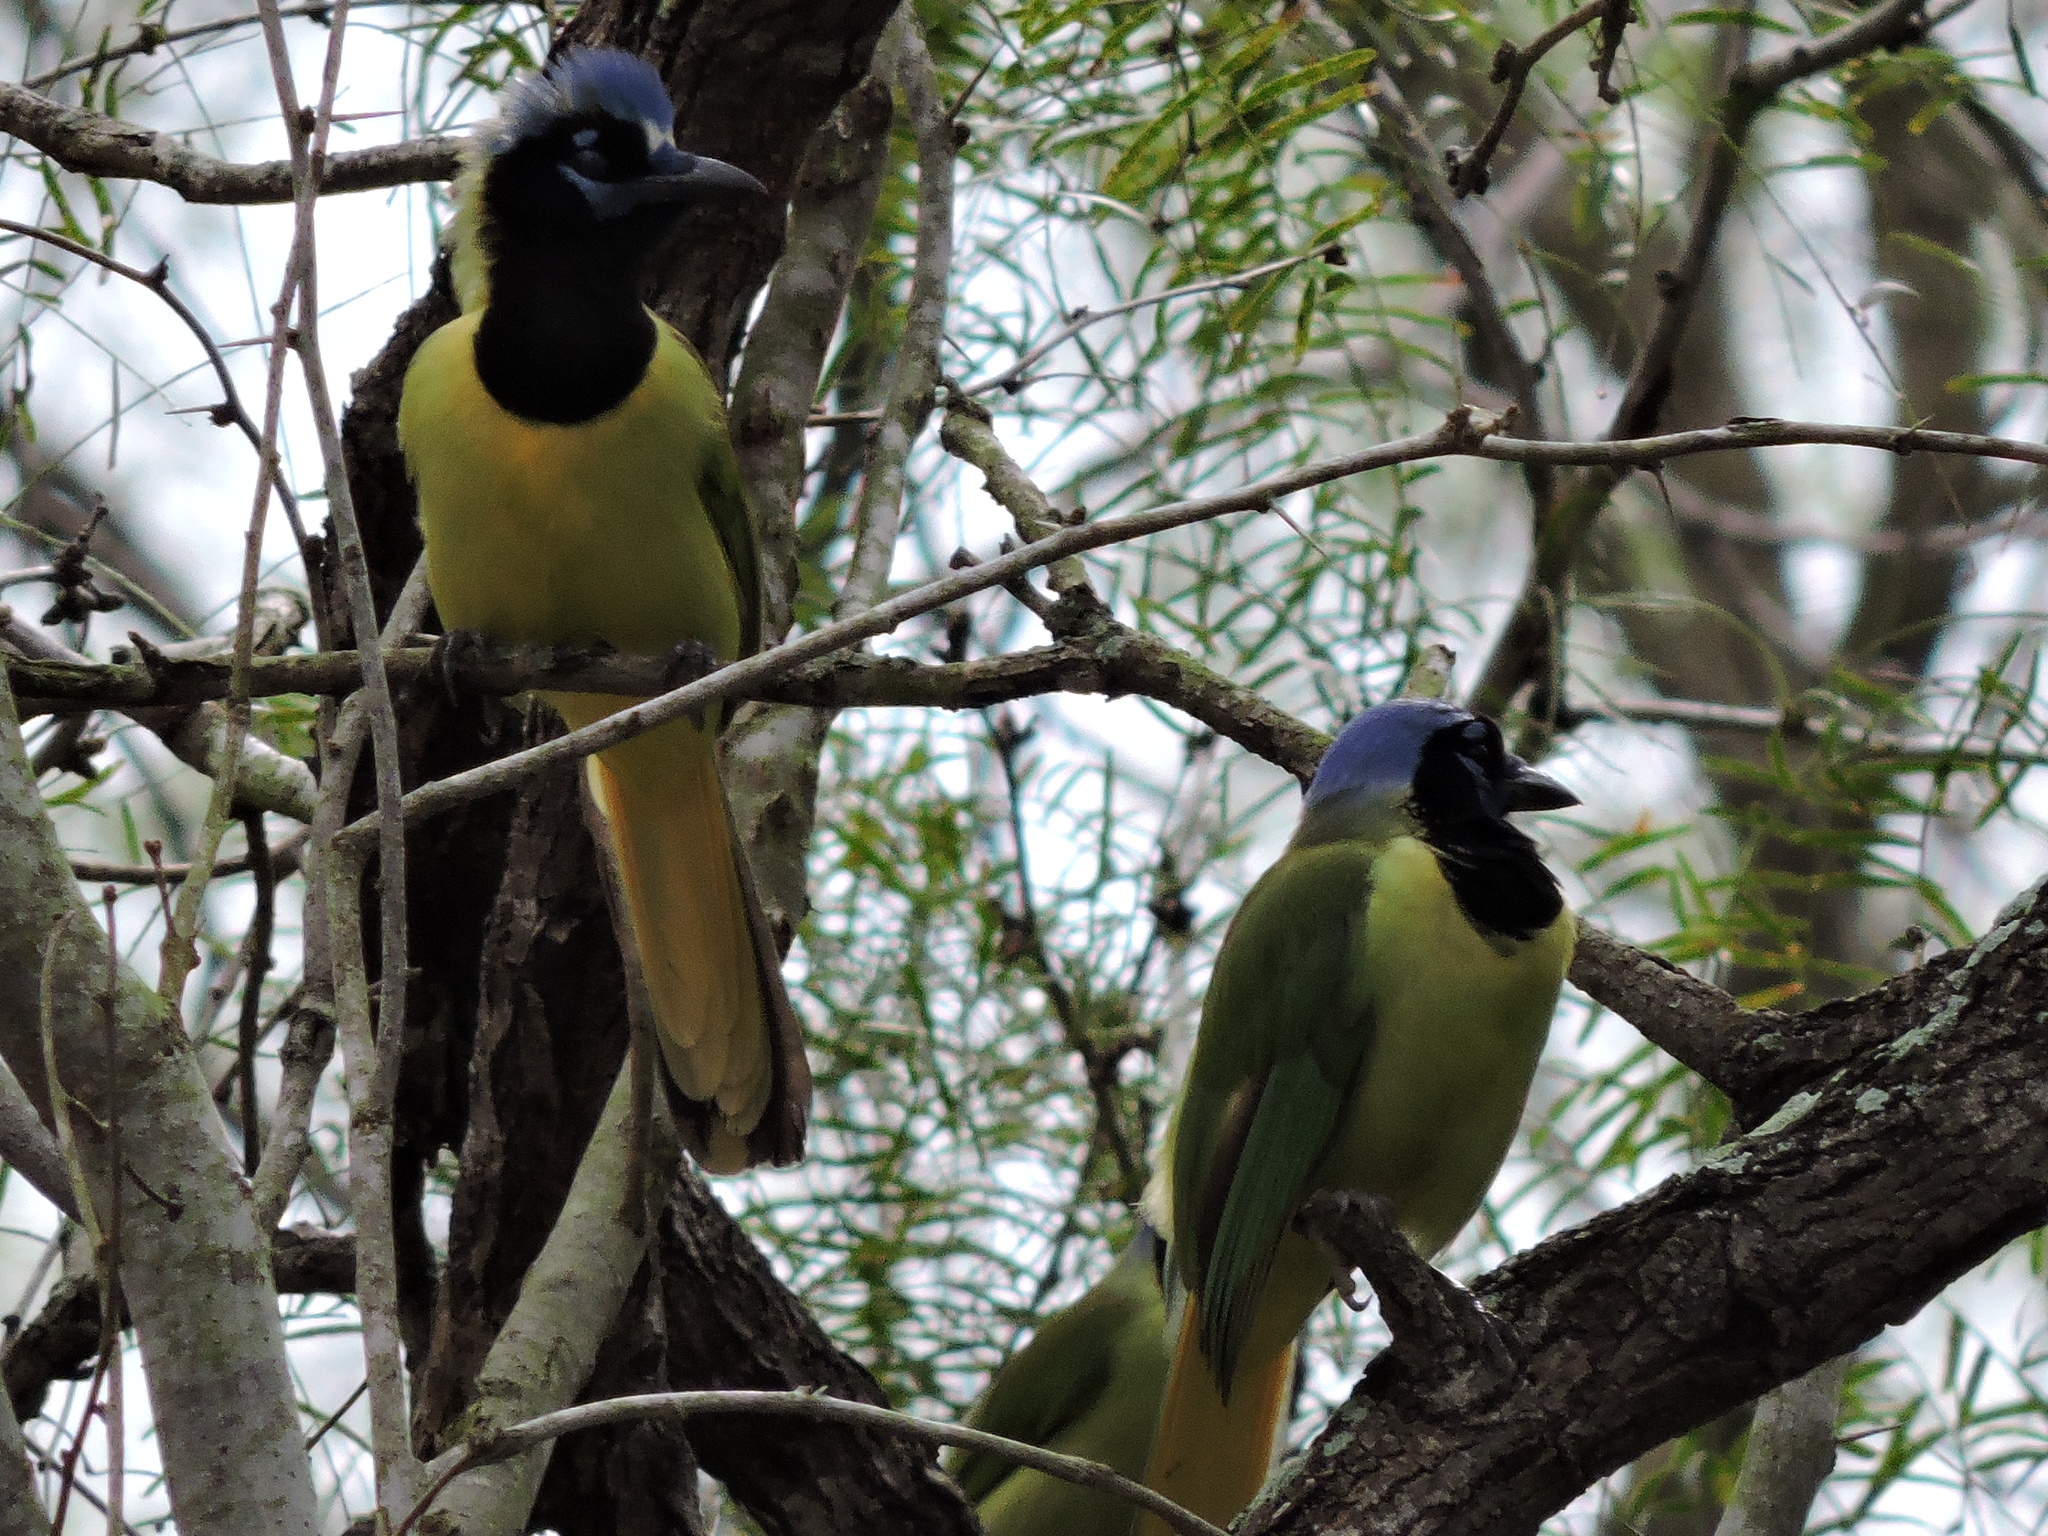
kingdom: Animalia
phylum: Chordata
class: Aves
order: Passeriformes
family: Corvidae
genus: Cyanocorax
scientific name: Cyanocorax yncas
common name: Green jay
